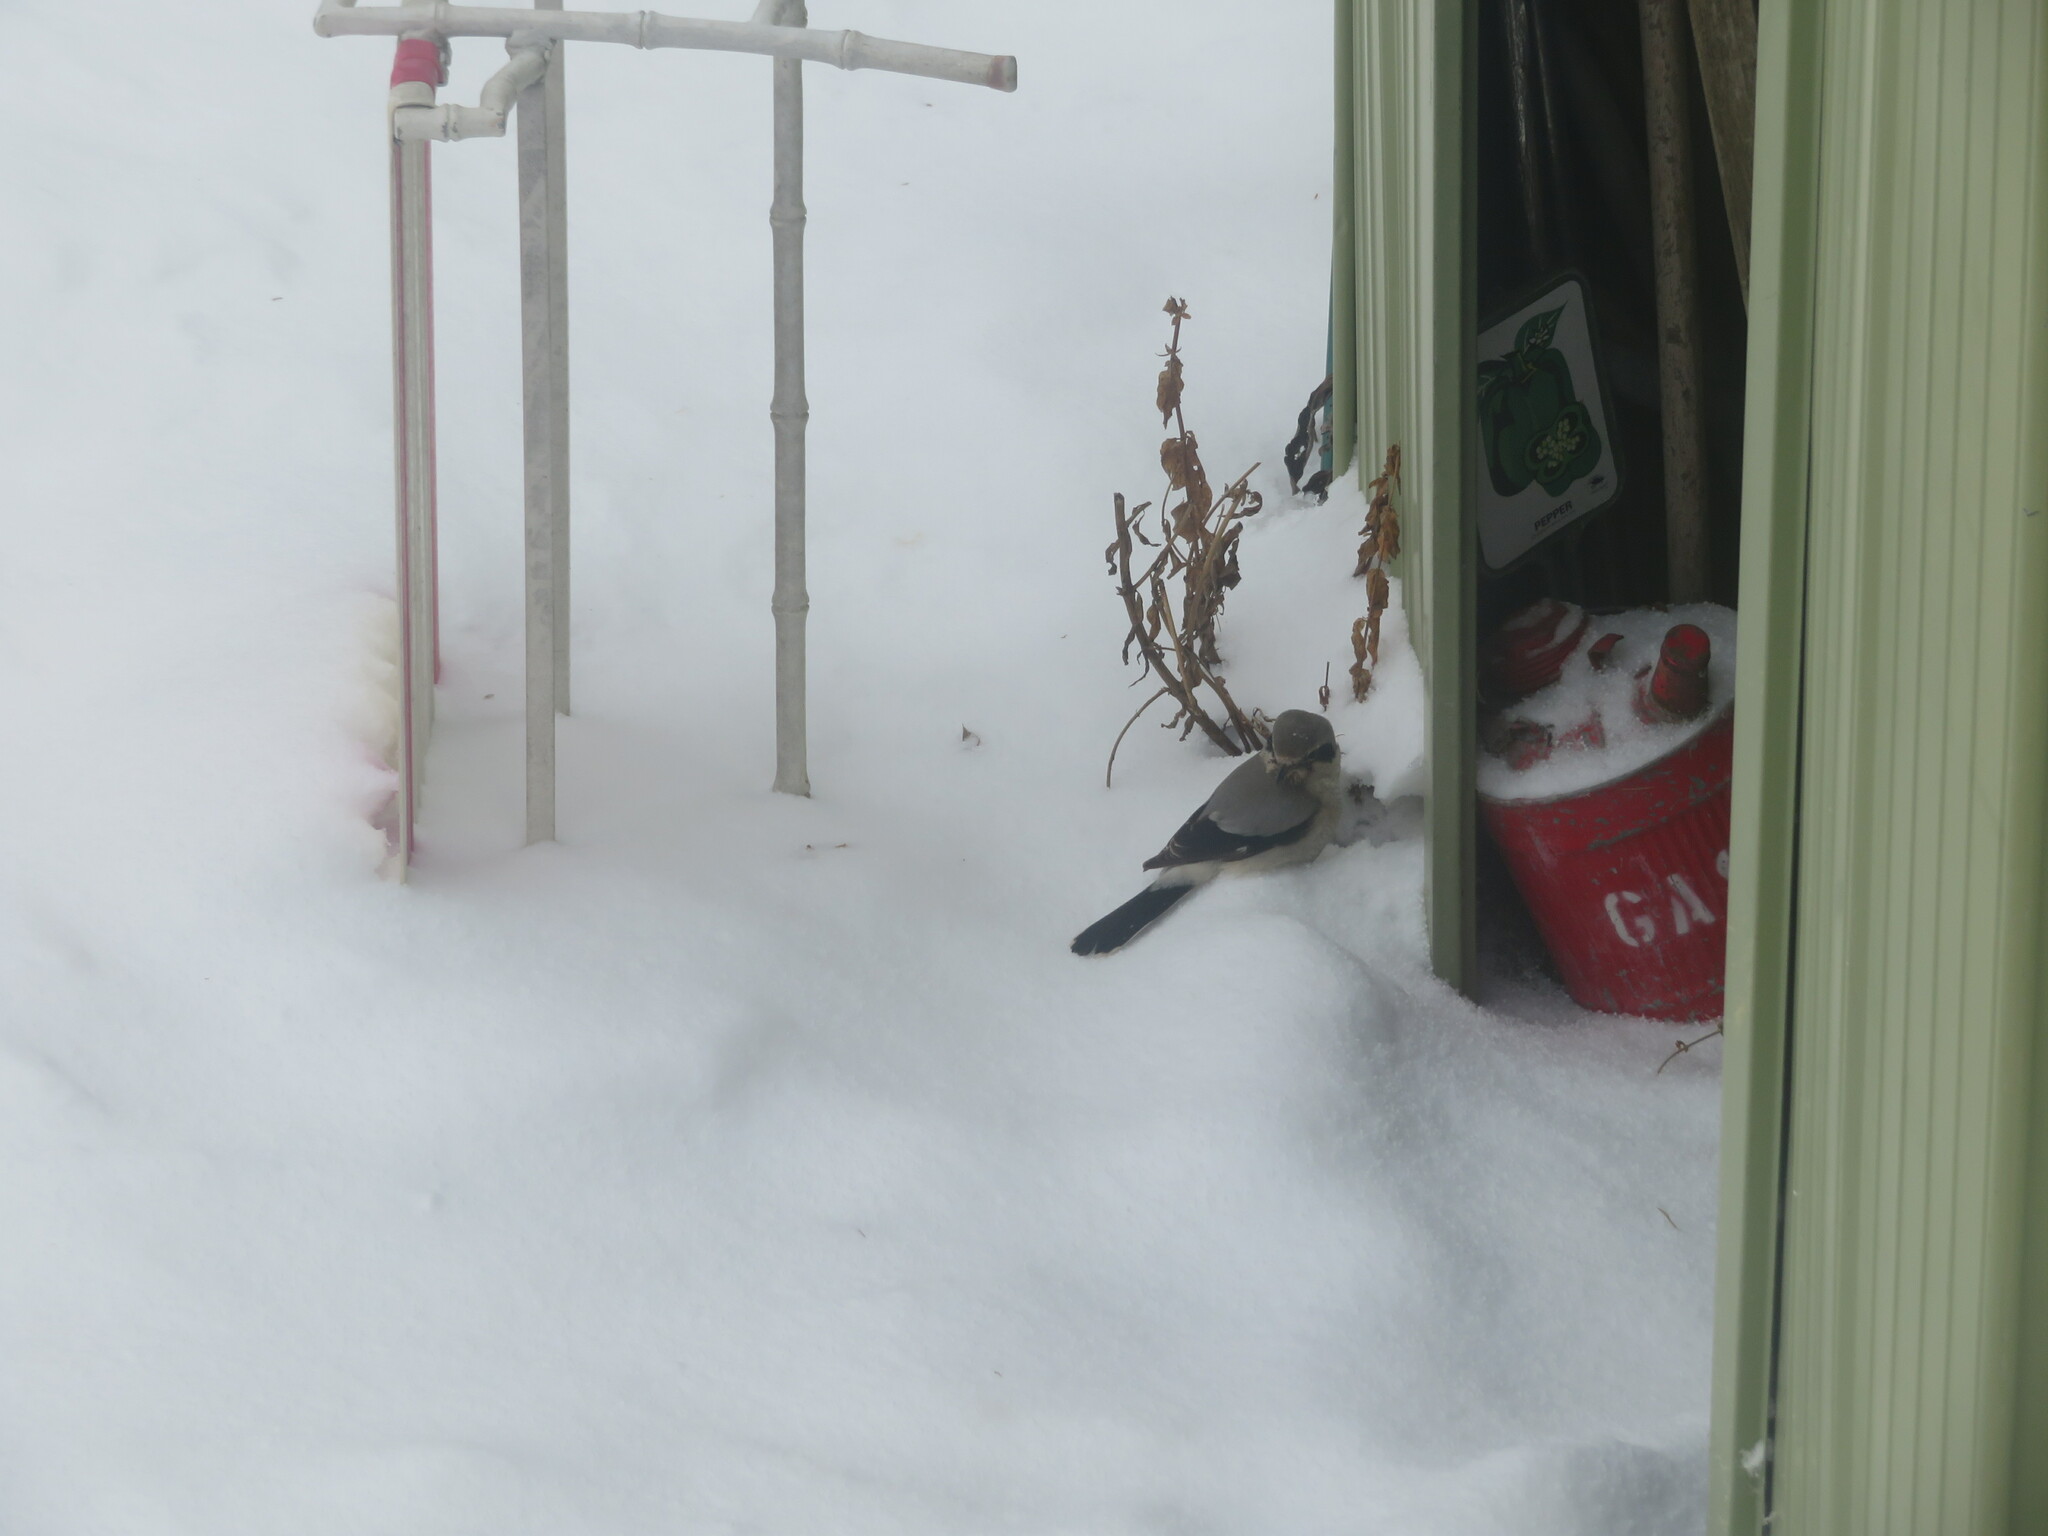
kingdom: Animalia
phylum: Chordata
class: Aves
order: Passeriformes
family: Laniidae
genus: Lanius
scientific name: Lanius borealis
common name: Northern shrike
